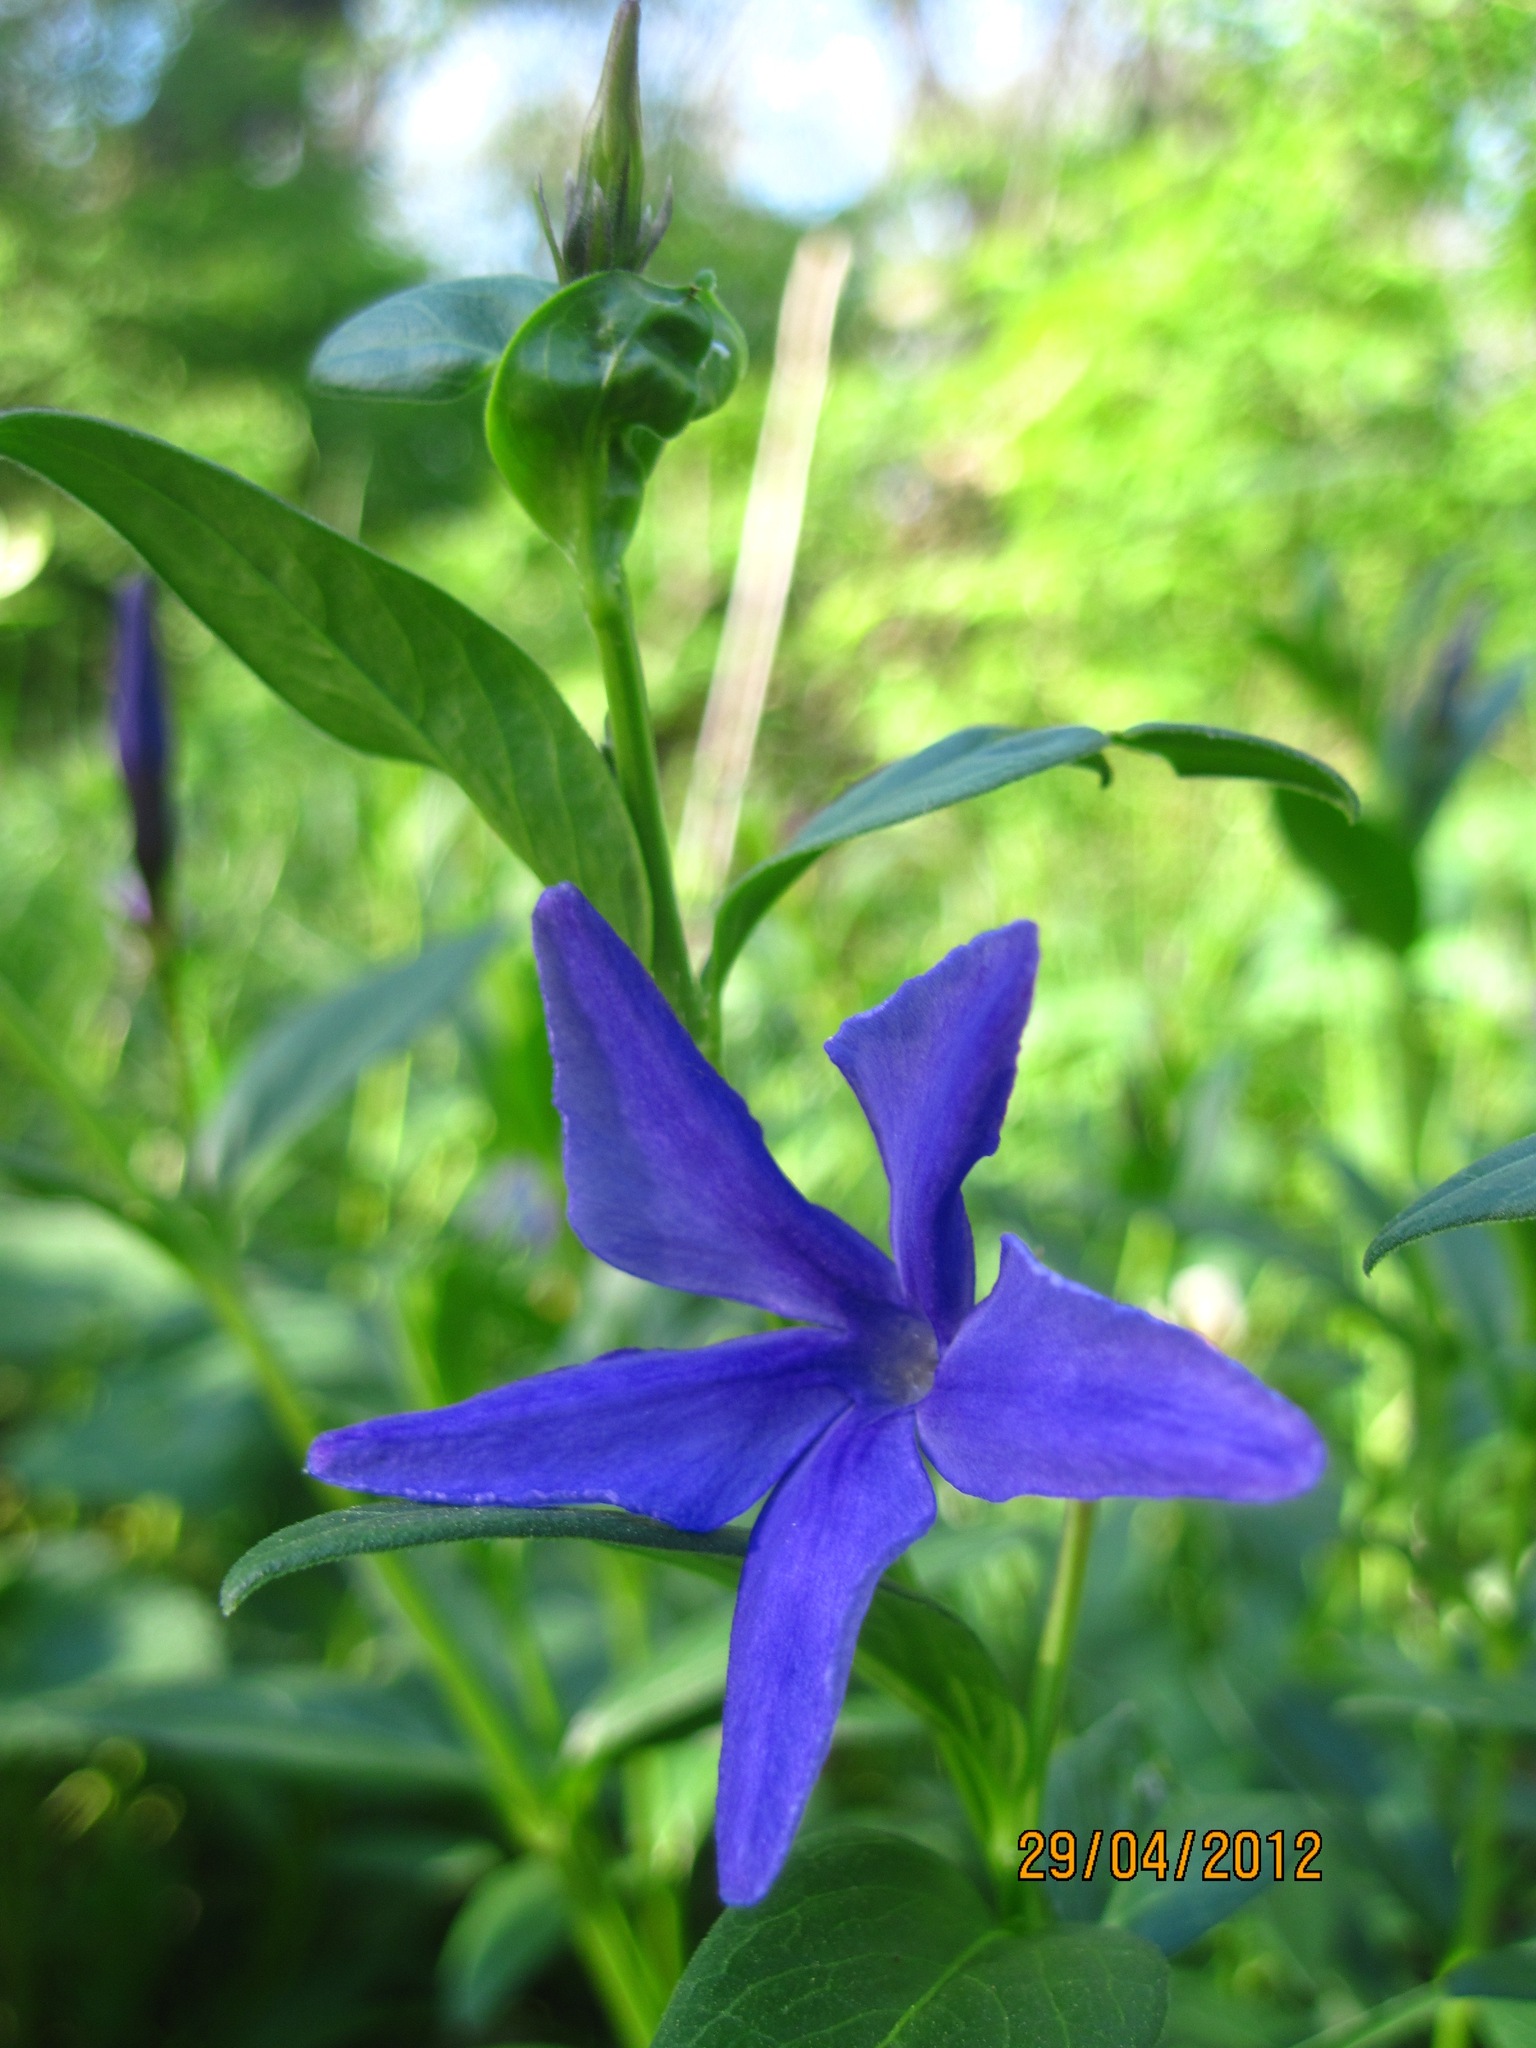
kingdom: Plantae
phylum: Tracheophyta
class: Magnoliopsida
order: Gentianales
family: Apocynaceae
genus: Vinca
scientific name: Vinca herbacea
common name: Herbaceous periwinkle
